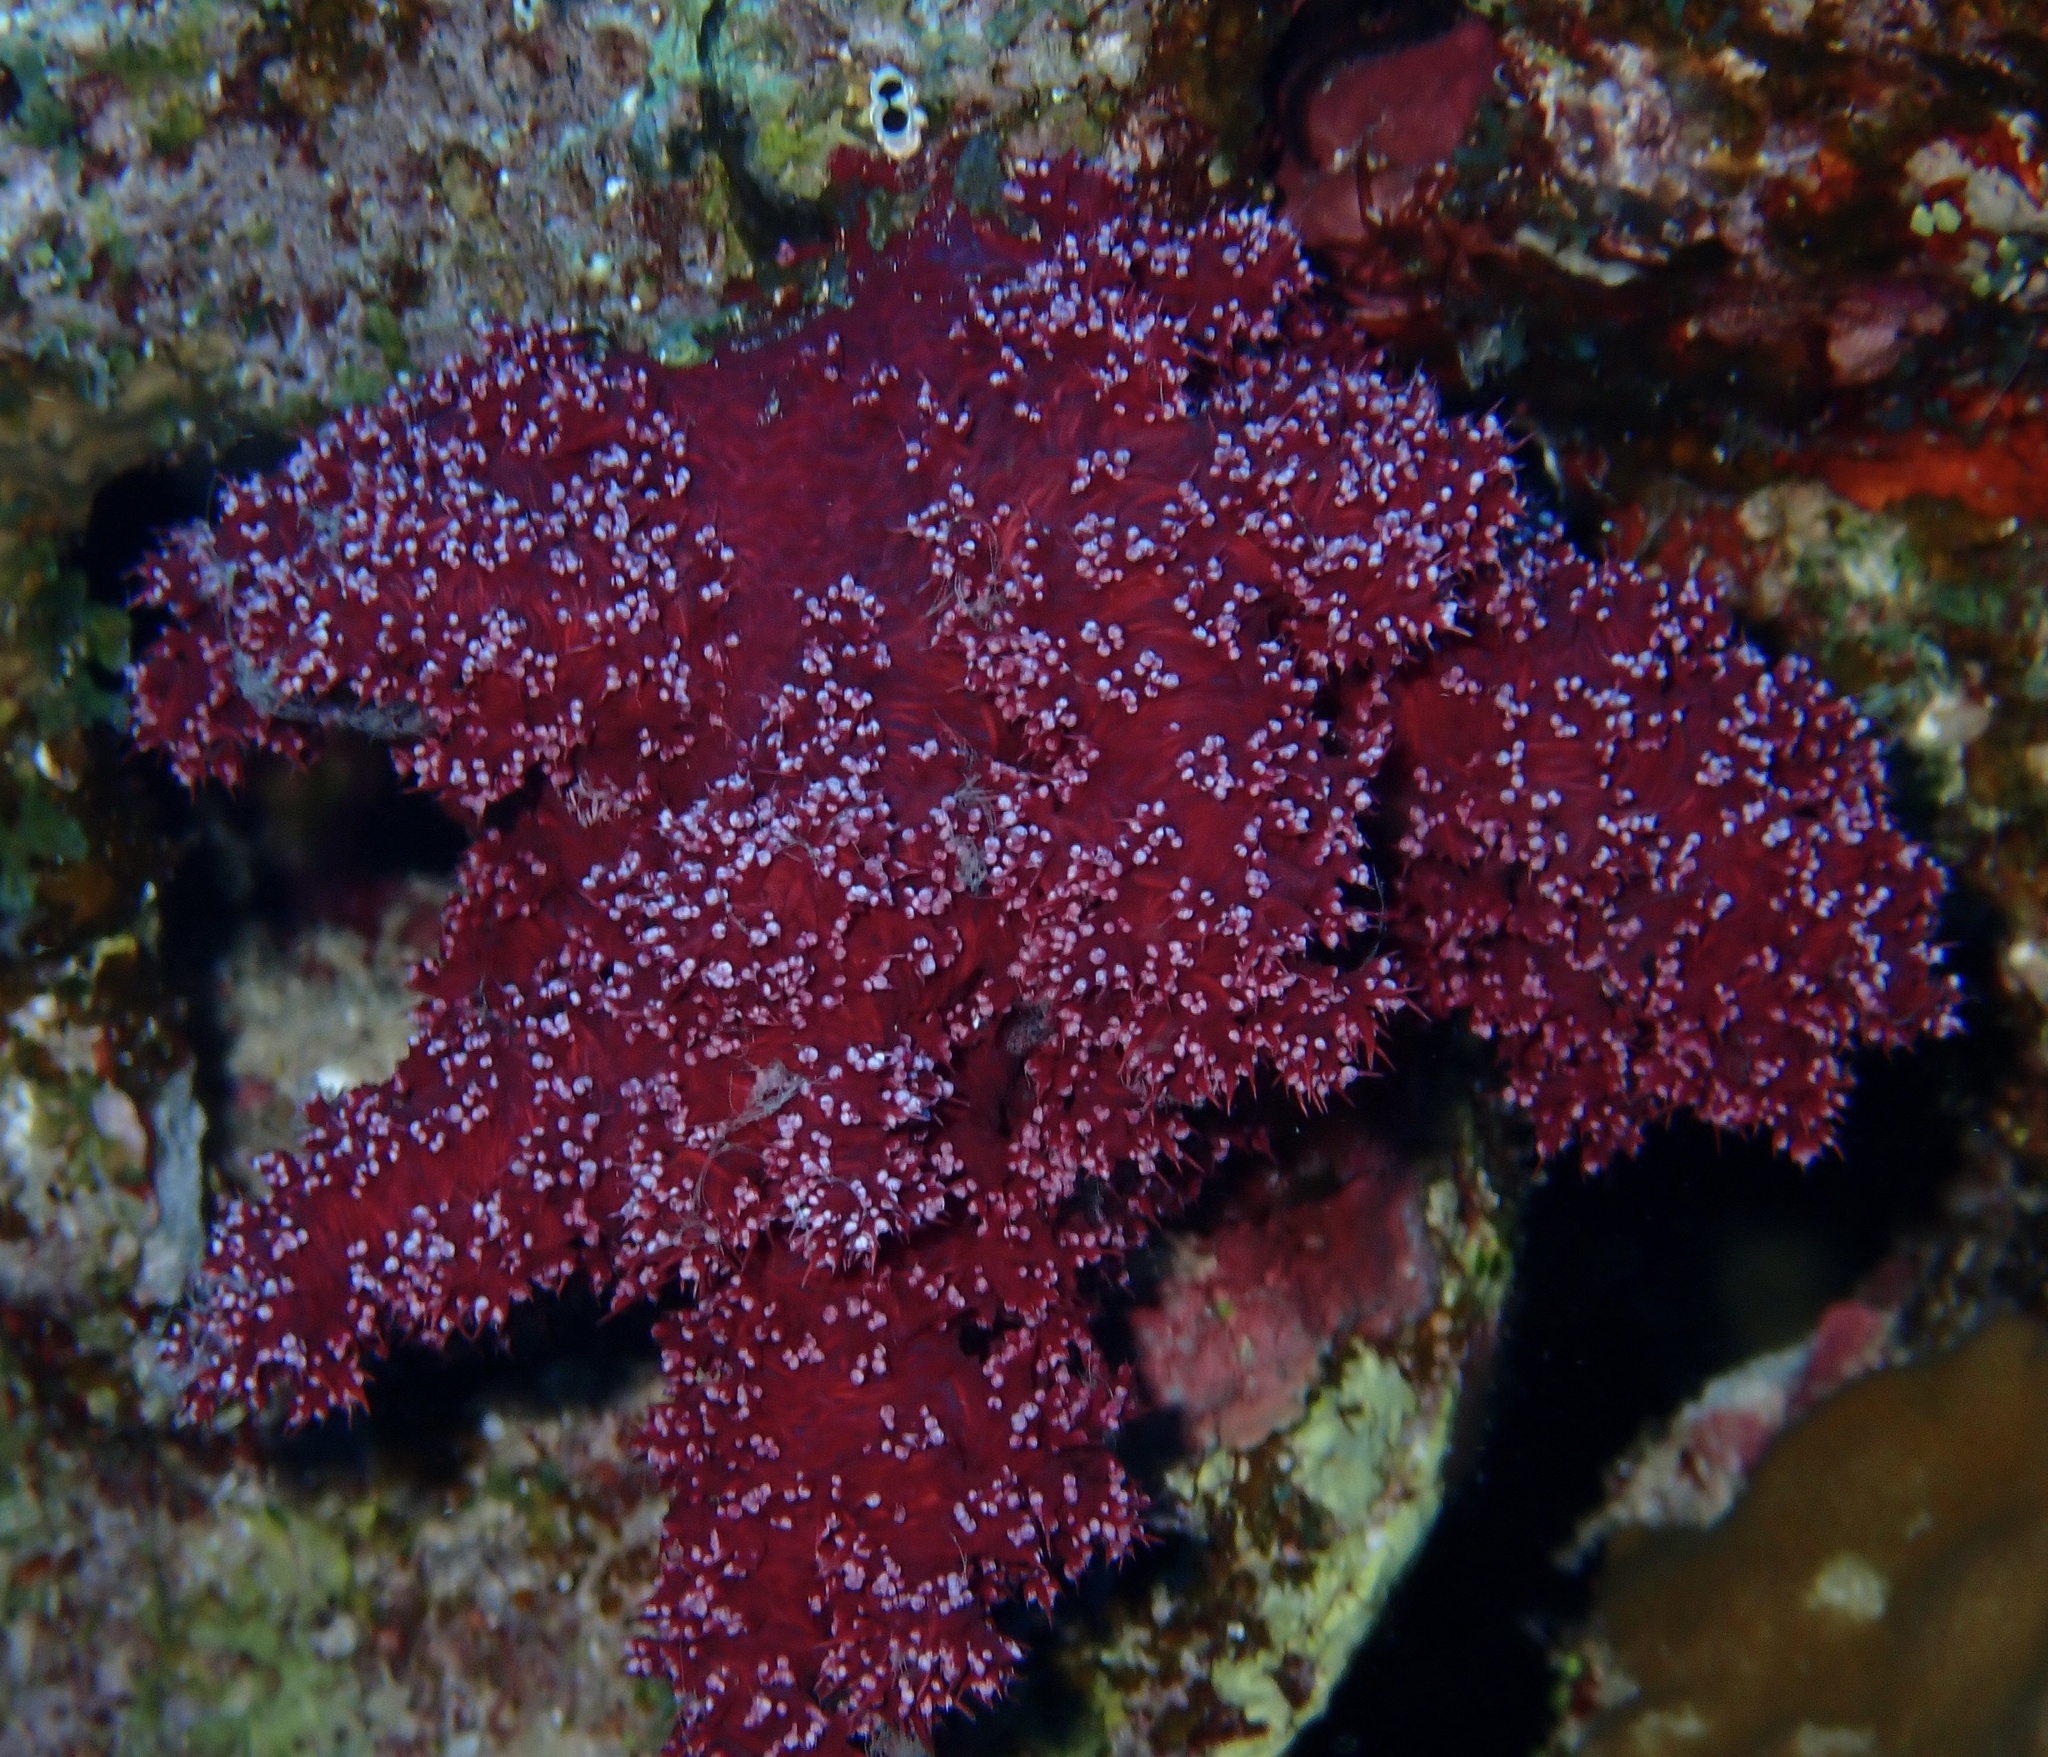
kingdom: Animalia
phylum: Cnidaria
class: Anthozoa
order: Malacalcyonacea
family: Nephtheidae
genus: Dendronephthya
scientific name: Dendronephthya hemprichi
